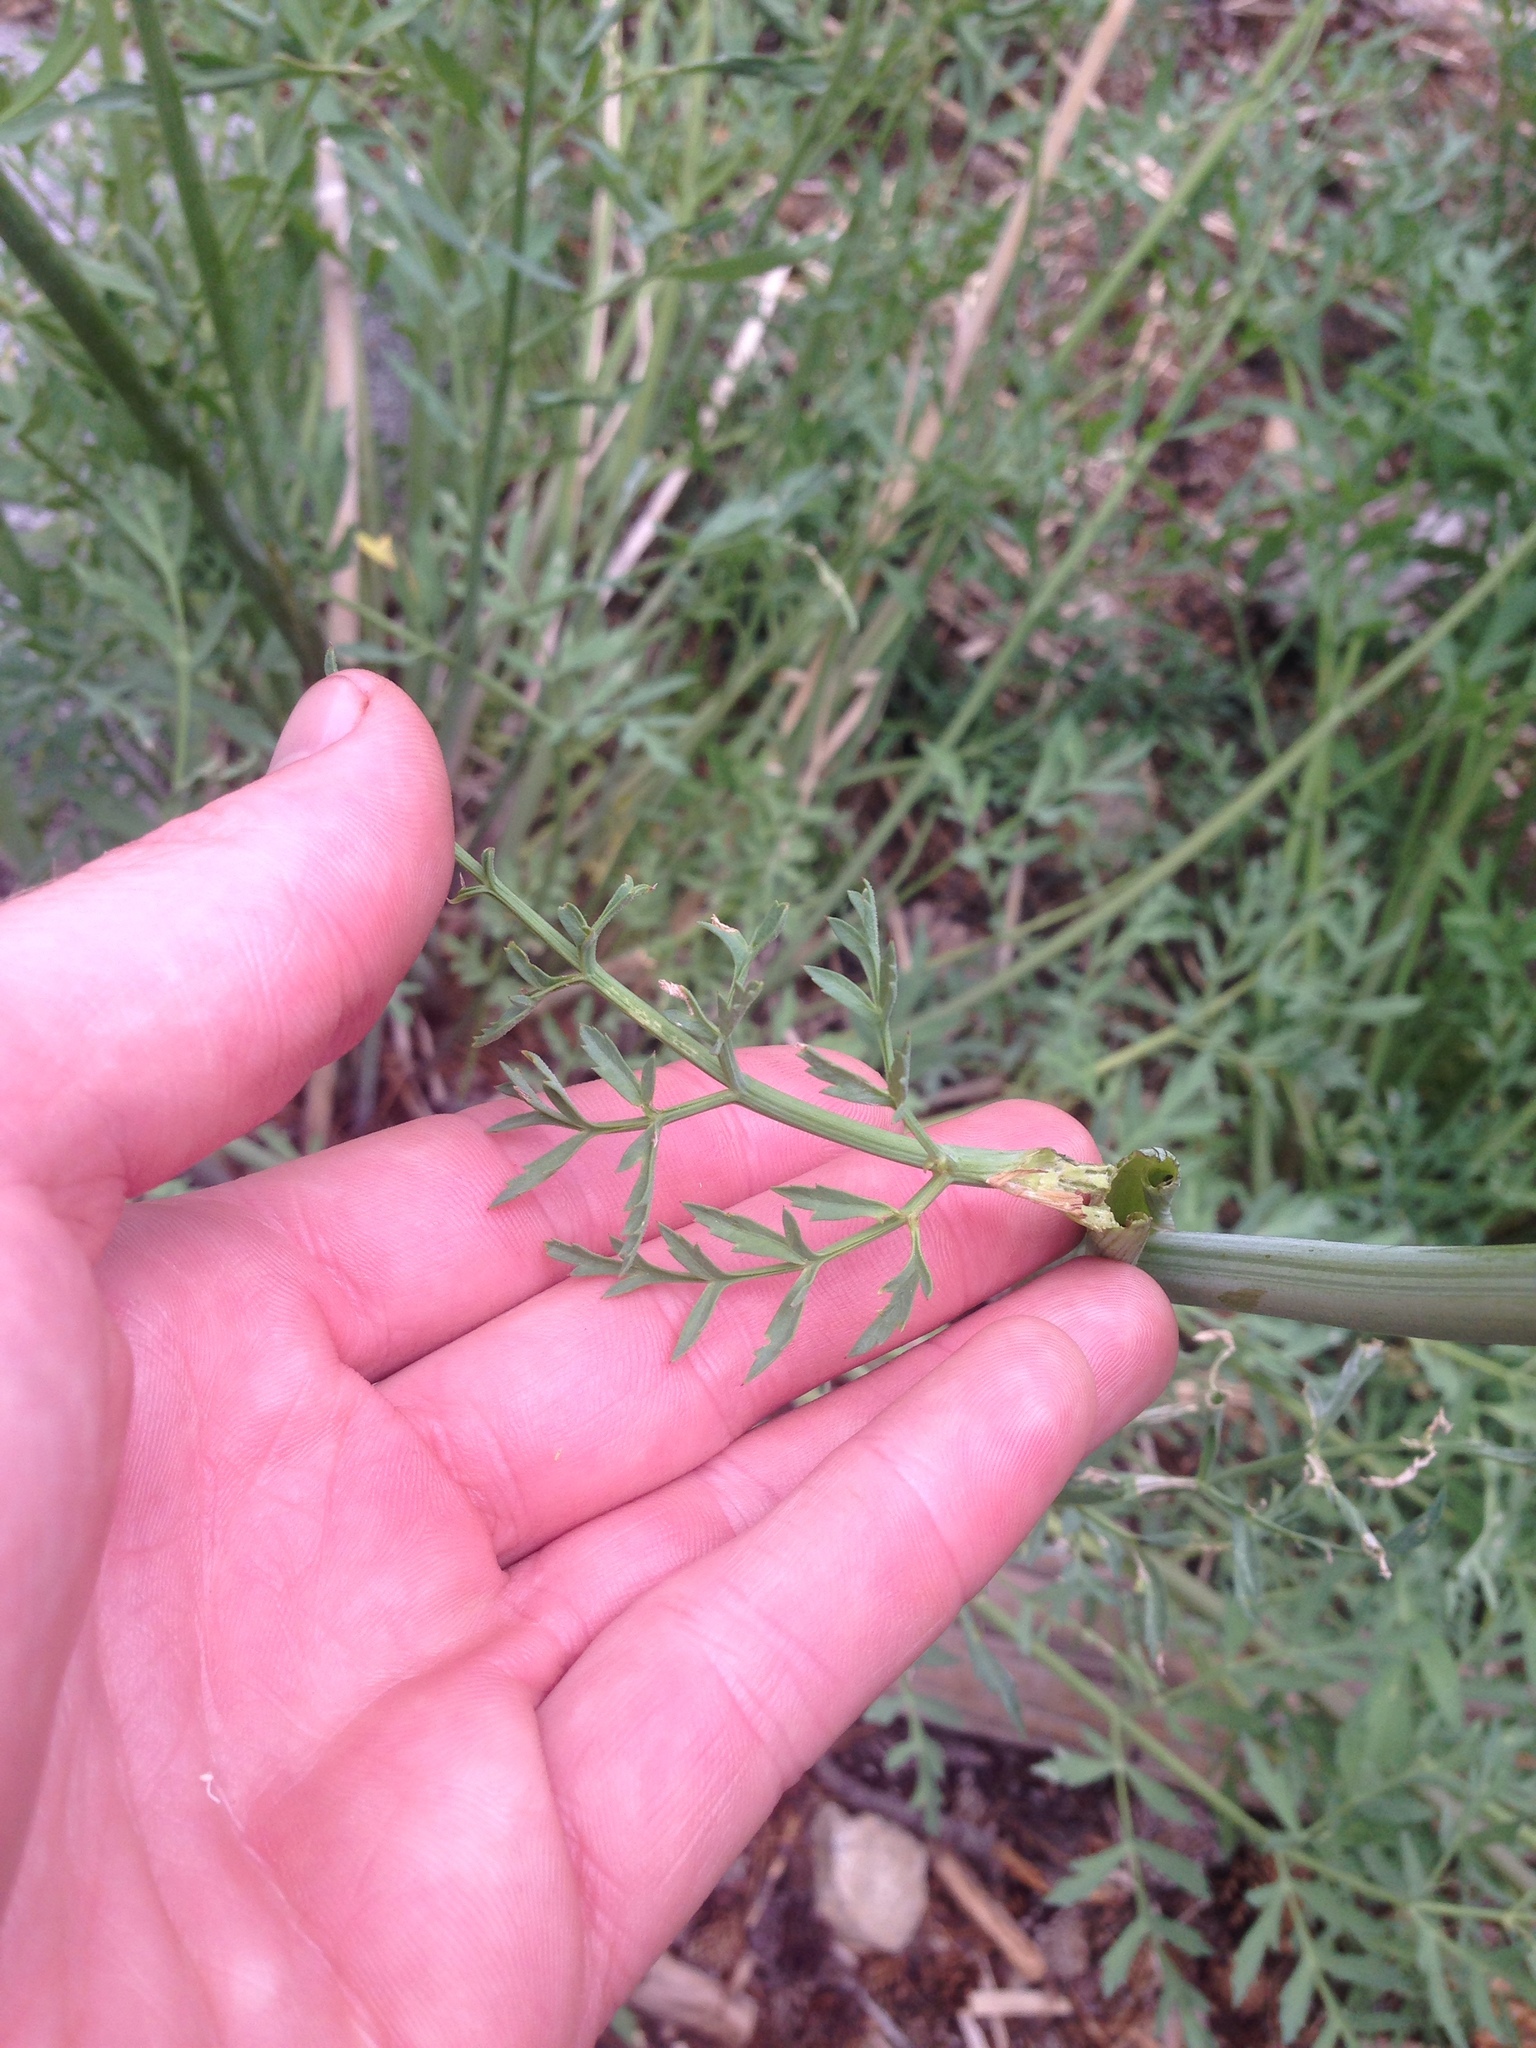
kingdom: Plantae
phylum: Tracheophyta
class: Magnoliopsida
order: Apiales
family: Apiaceae
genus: Angelica
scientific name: Angelica capitellata
